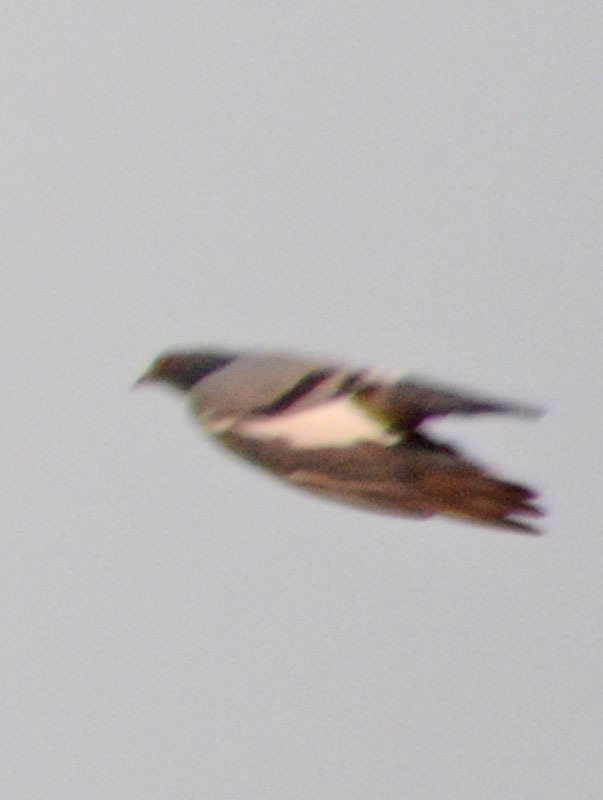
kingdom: Animalia
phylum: Chordata
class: Aves
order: Columbiformes
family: Columbidae
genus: Columba
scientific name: Columba livia
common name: Rock pigeon
